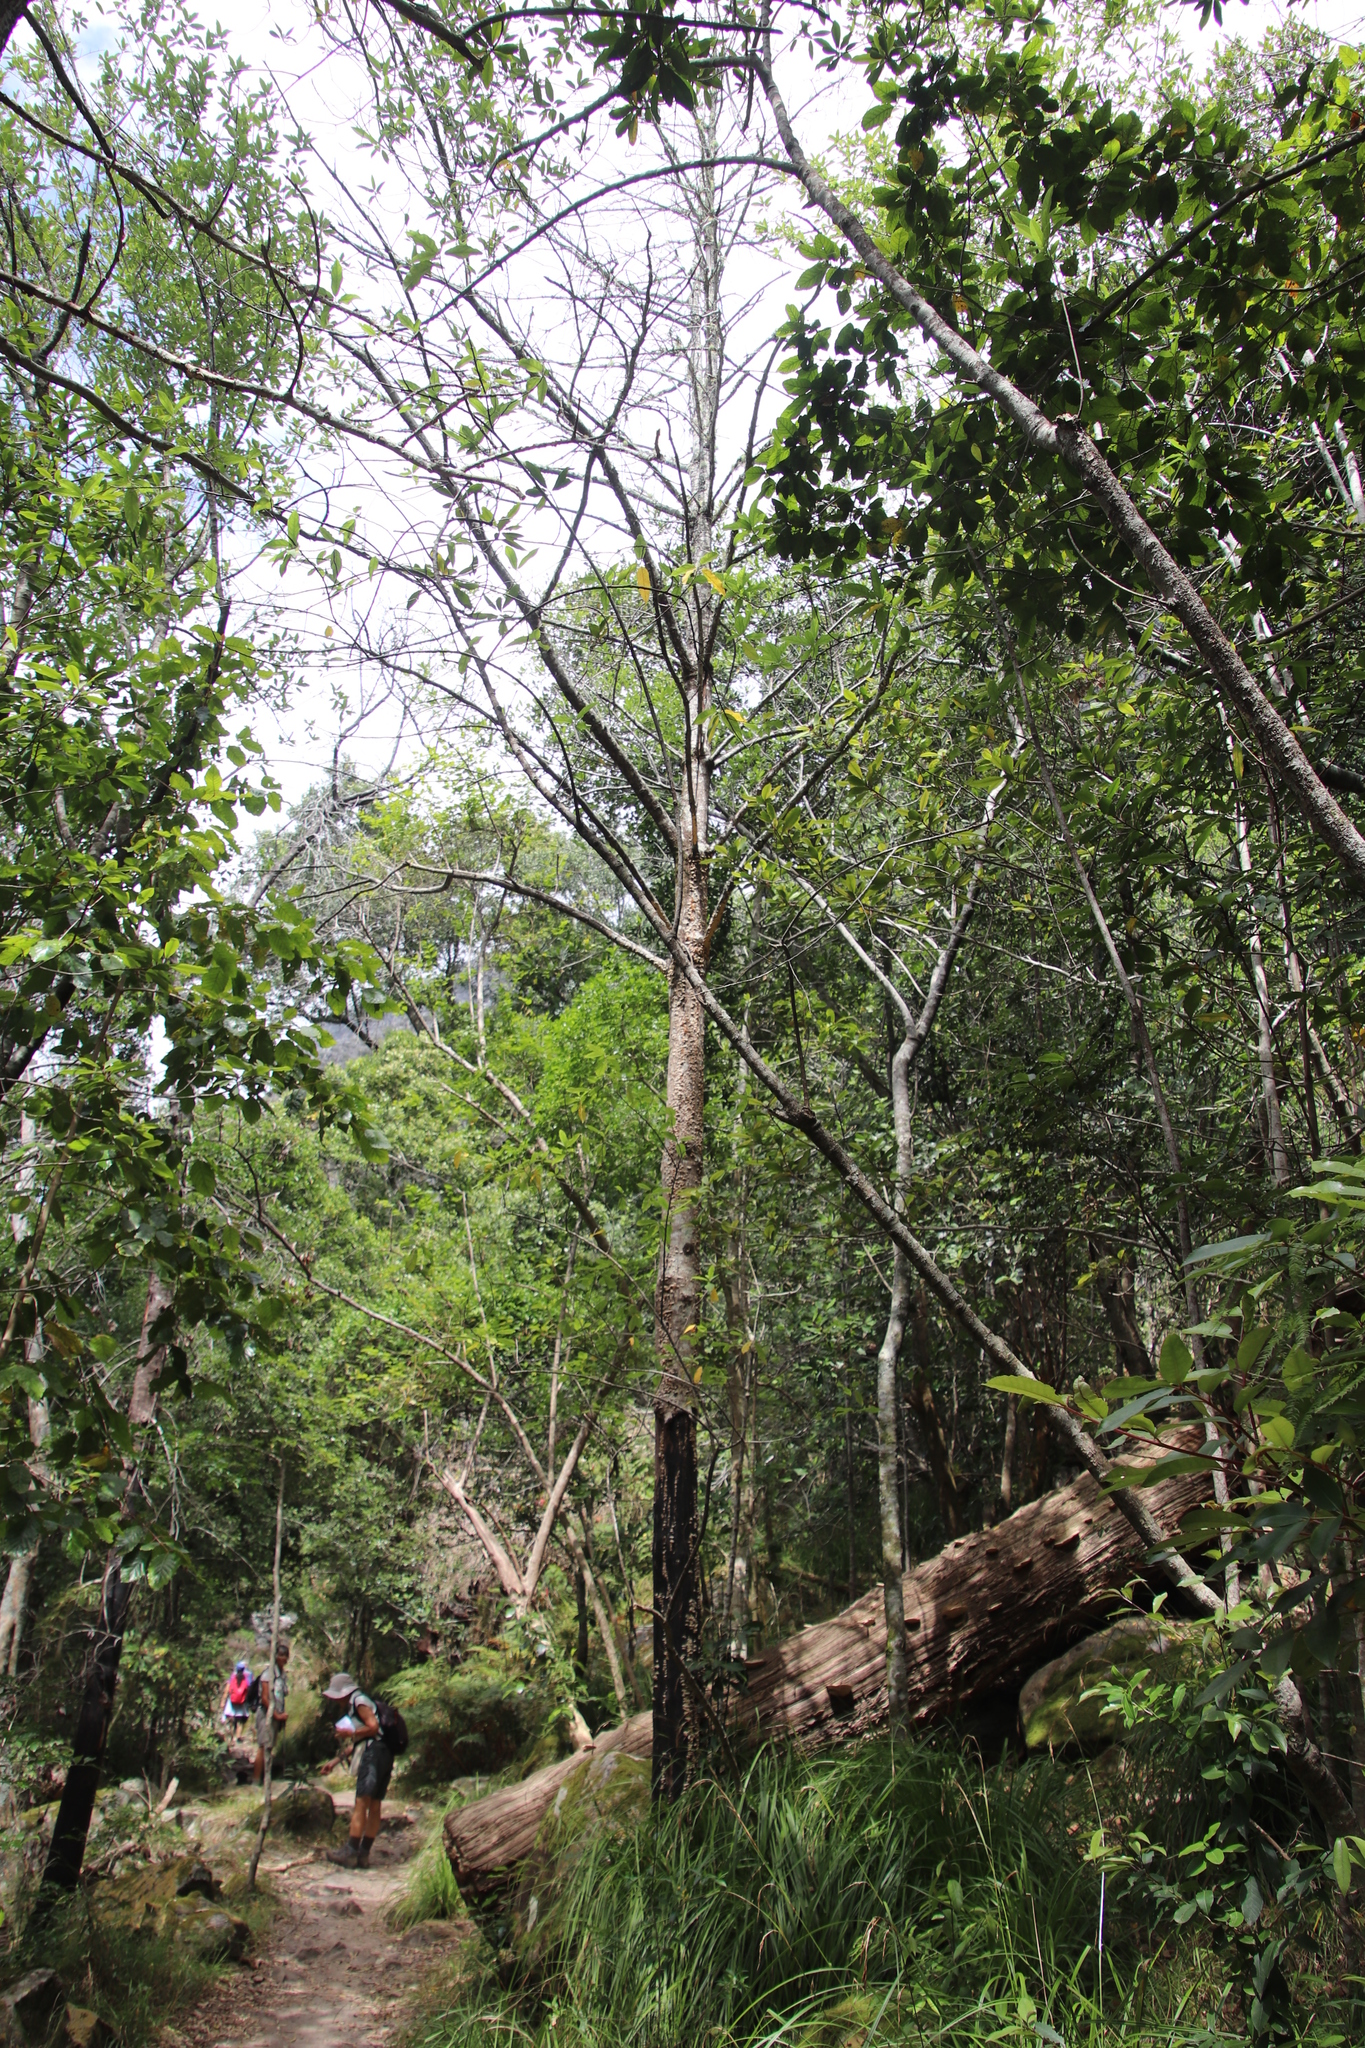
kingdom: Plantae
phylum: Tracheophyta
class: Magnoliopsida
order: Ericales
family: Primulaceae
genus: Myrsine
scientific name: Myrsine melanophloeos
